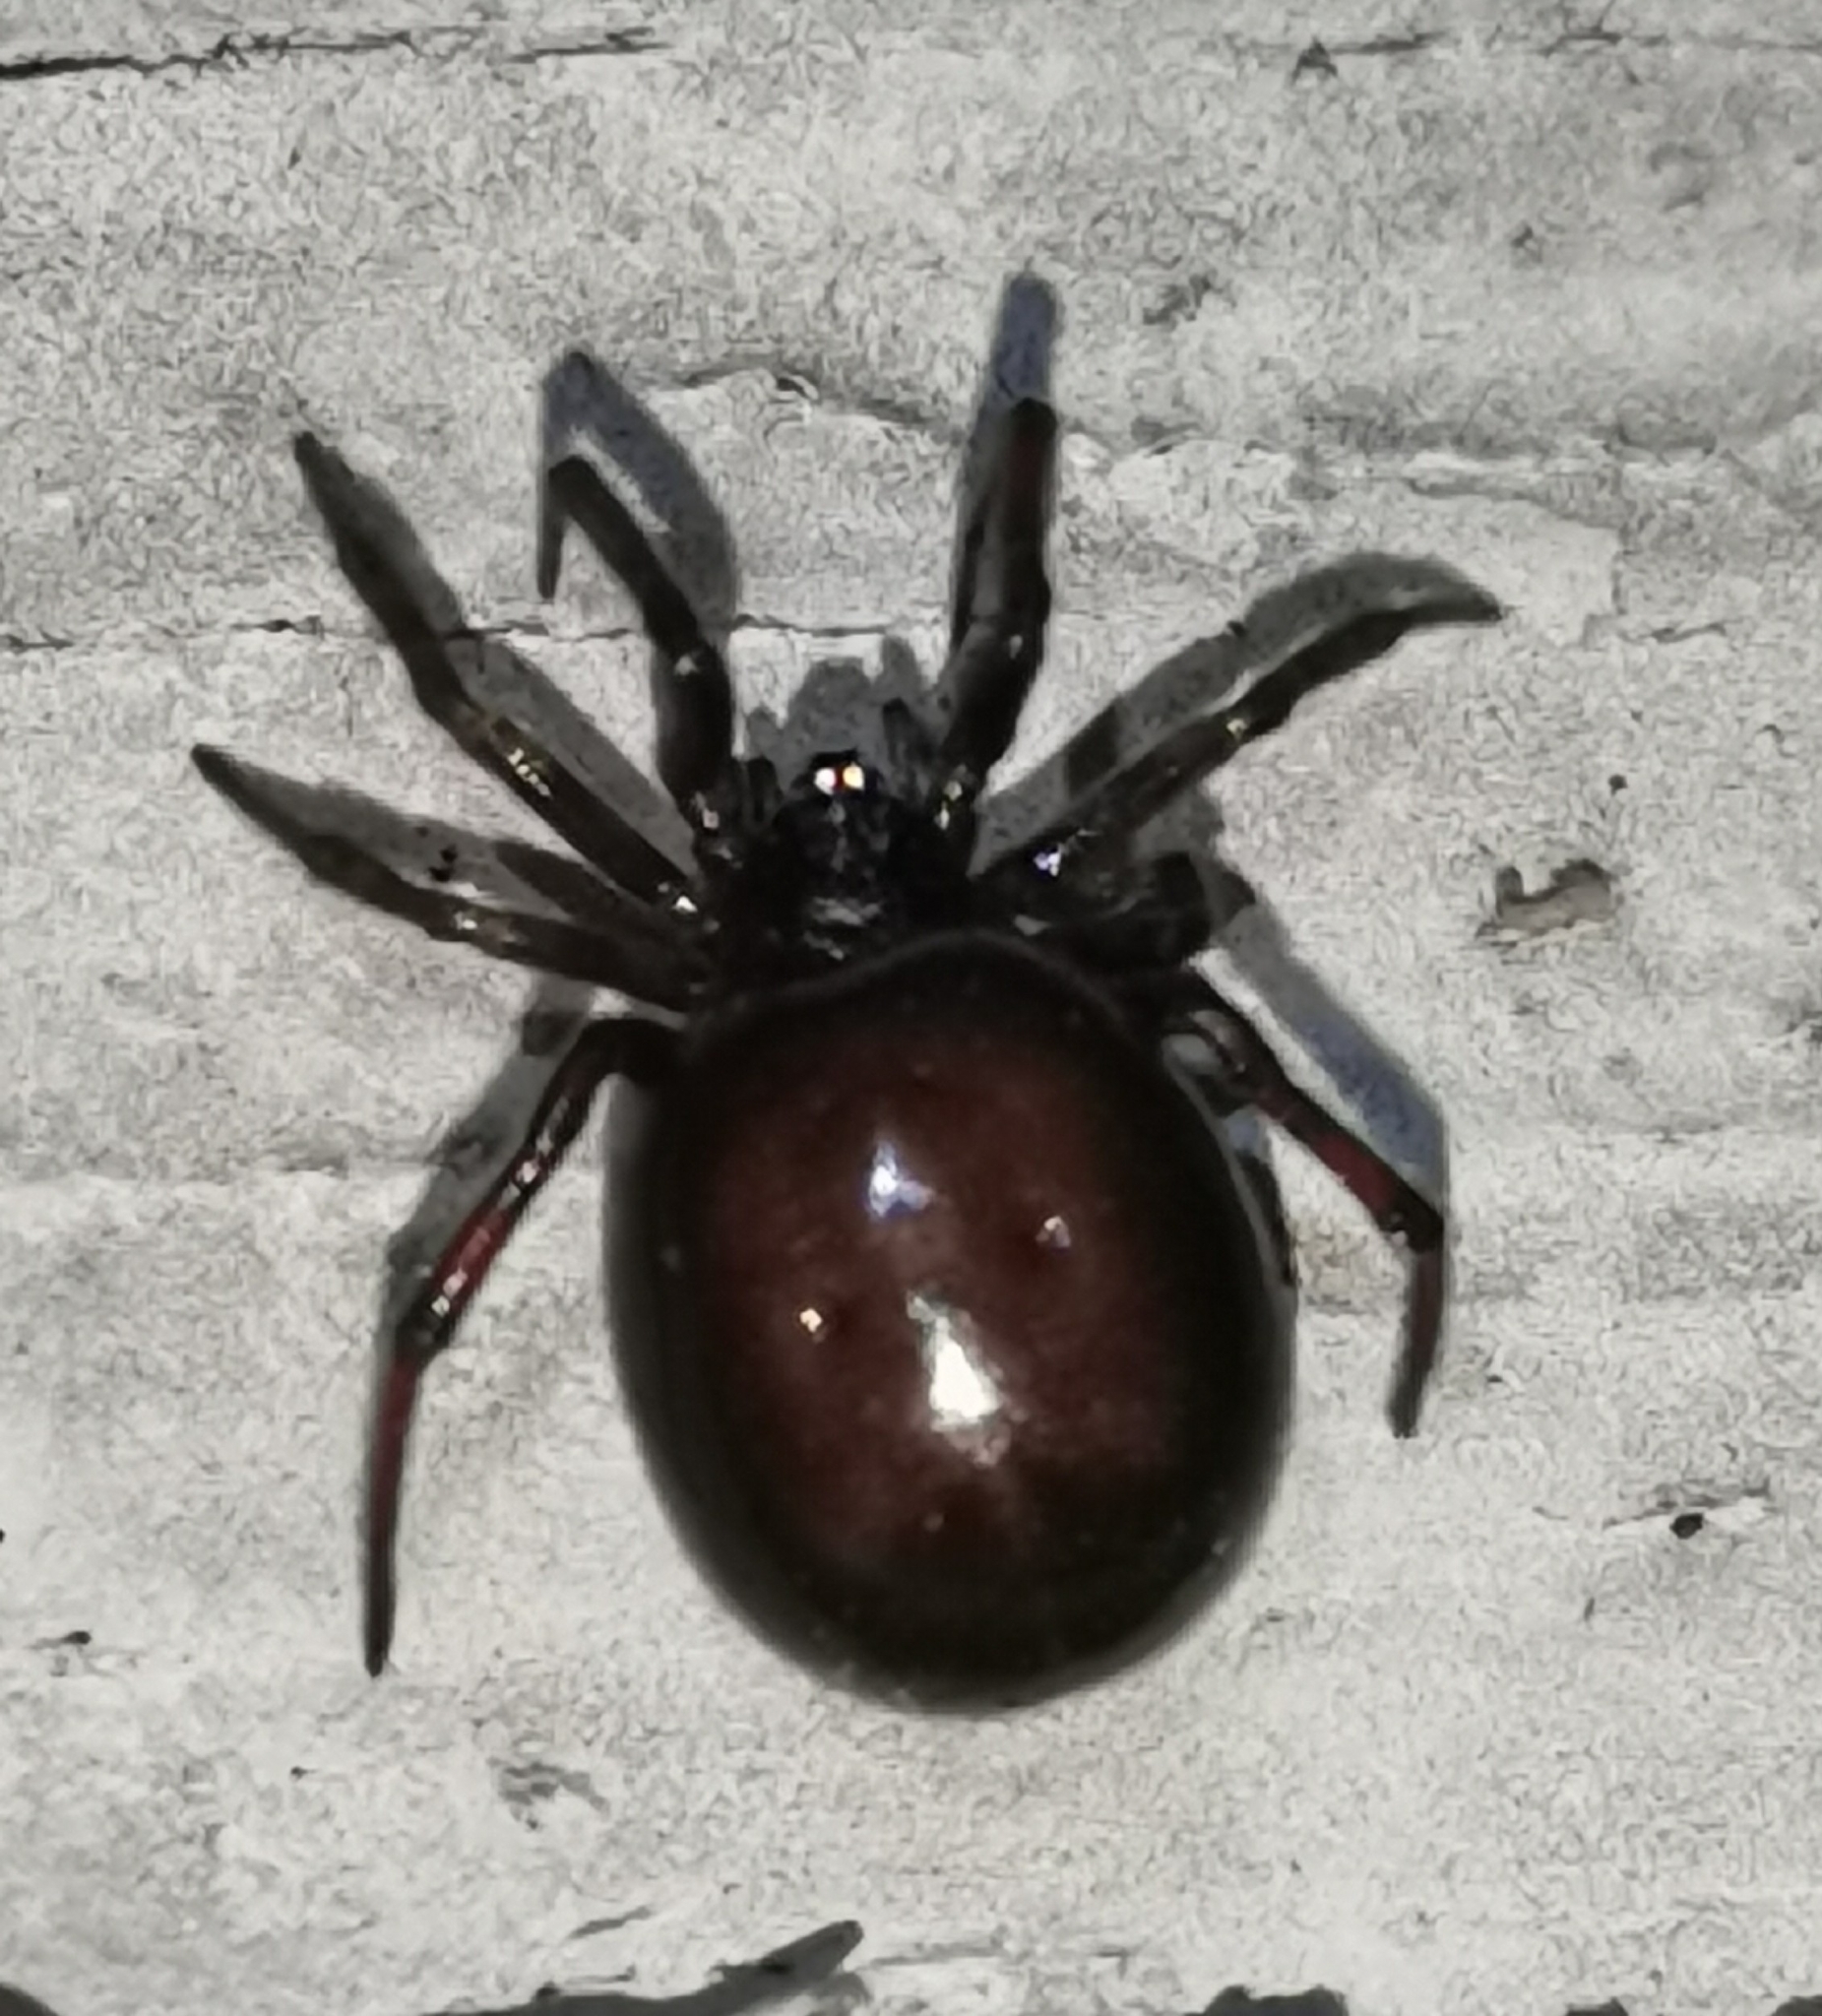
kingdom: Animalia
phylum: Arthropoda
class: Arachnida
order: Araneae
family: Theridiidae
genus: Steatoda
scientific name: Steatoda bipunctata
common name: False widow
